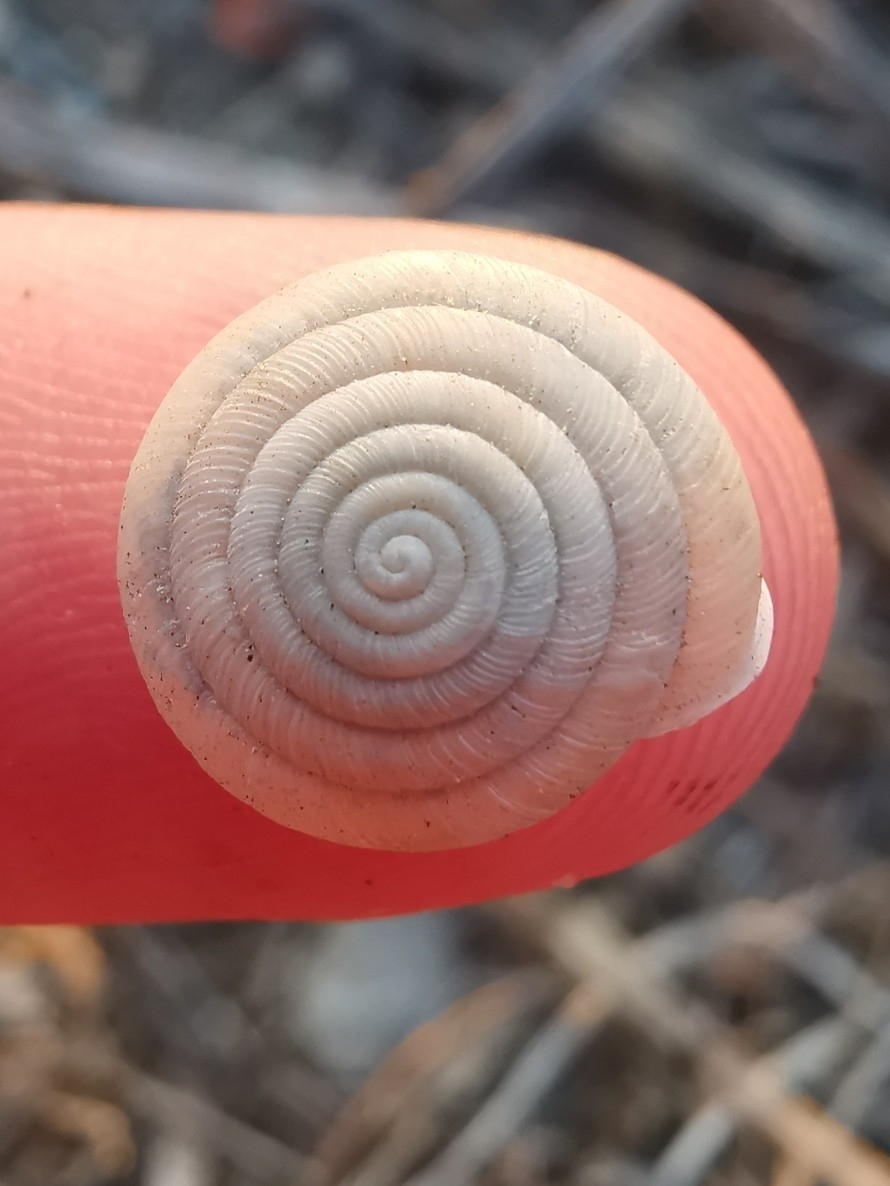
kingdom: Animalia
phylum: Mollusca
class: Gastropoda
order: Stylommatophora
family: Helicodontidae
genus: Lindholmiola
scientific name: Lindholmiola lens
